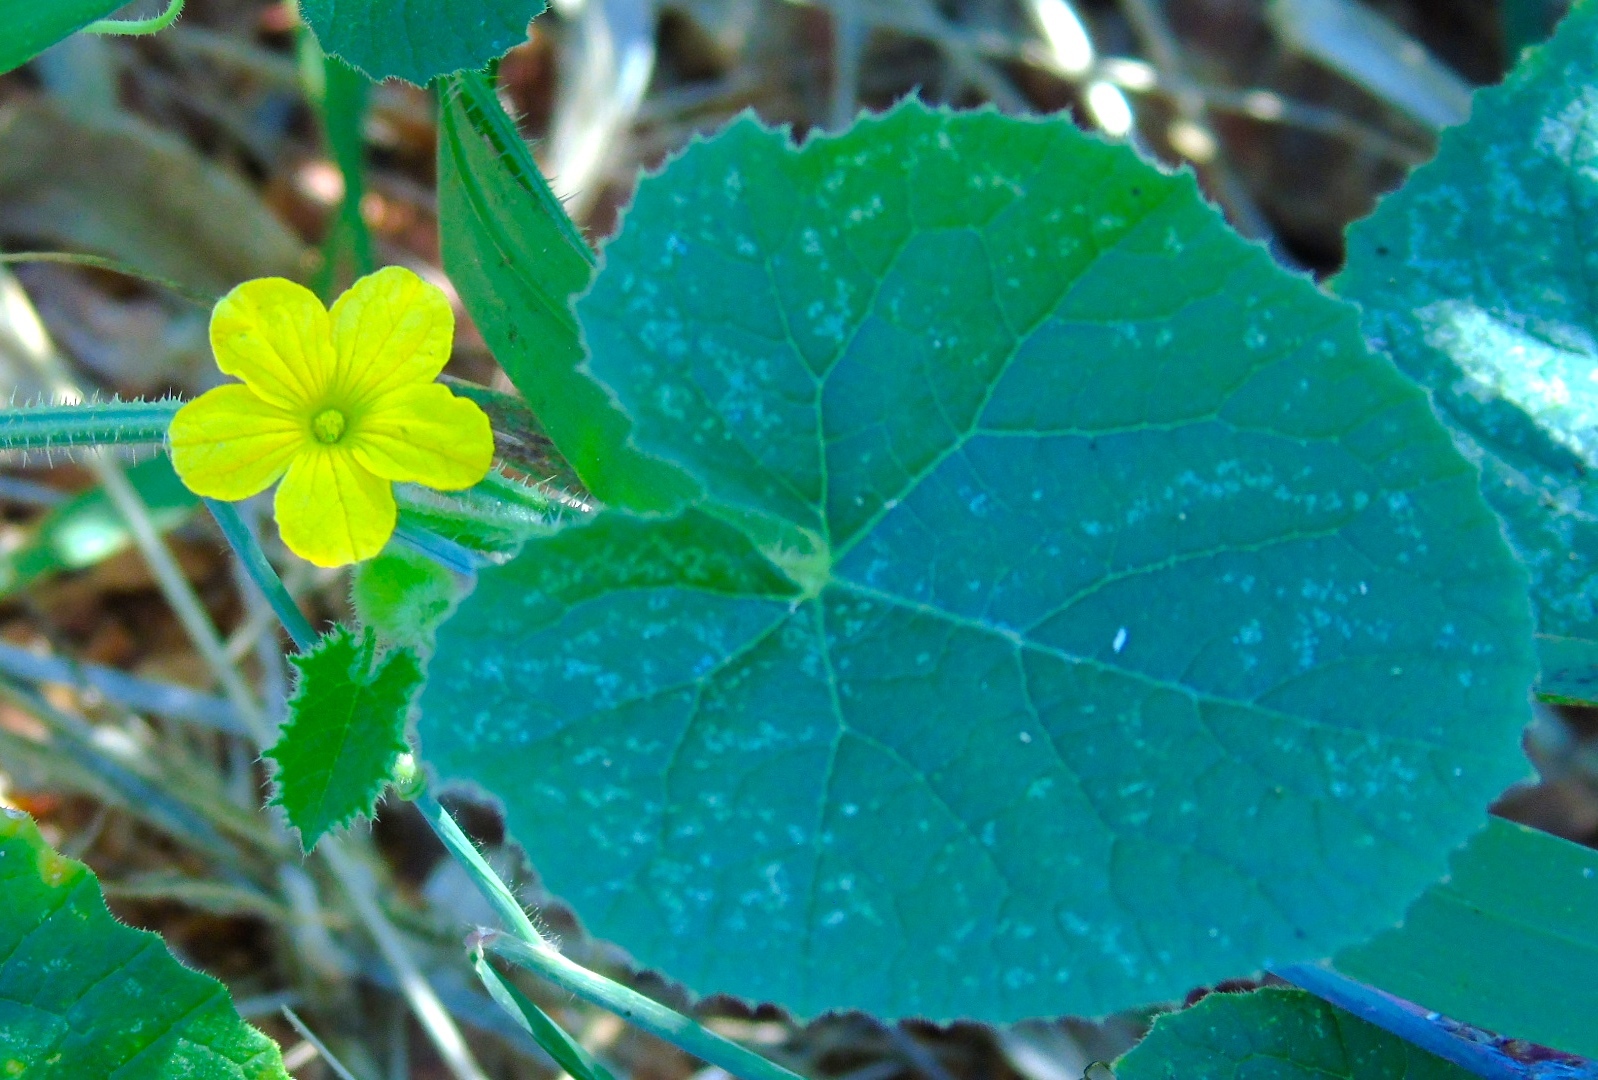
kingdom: Plantae
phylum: Tracheophyta
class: Magnoliopsida
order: Cucurbitales
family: Cucurbitaceae
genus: Cucumis
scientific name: Cucumis dipsaceus
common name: Hedgehog gourd
